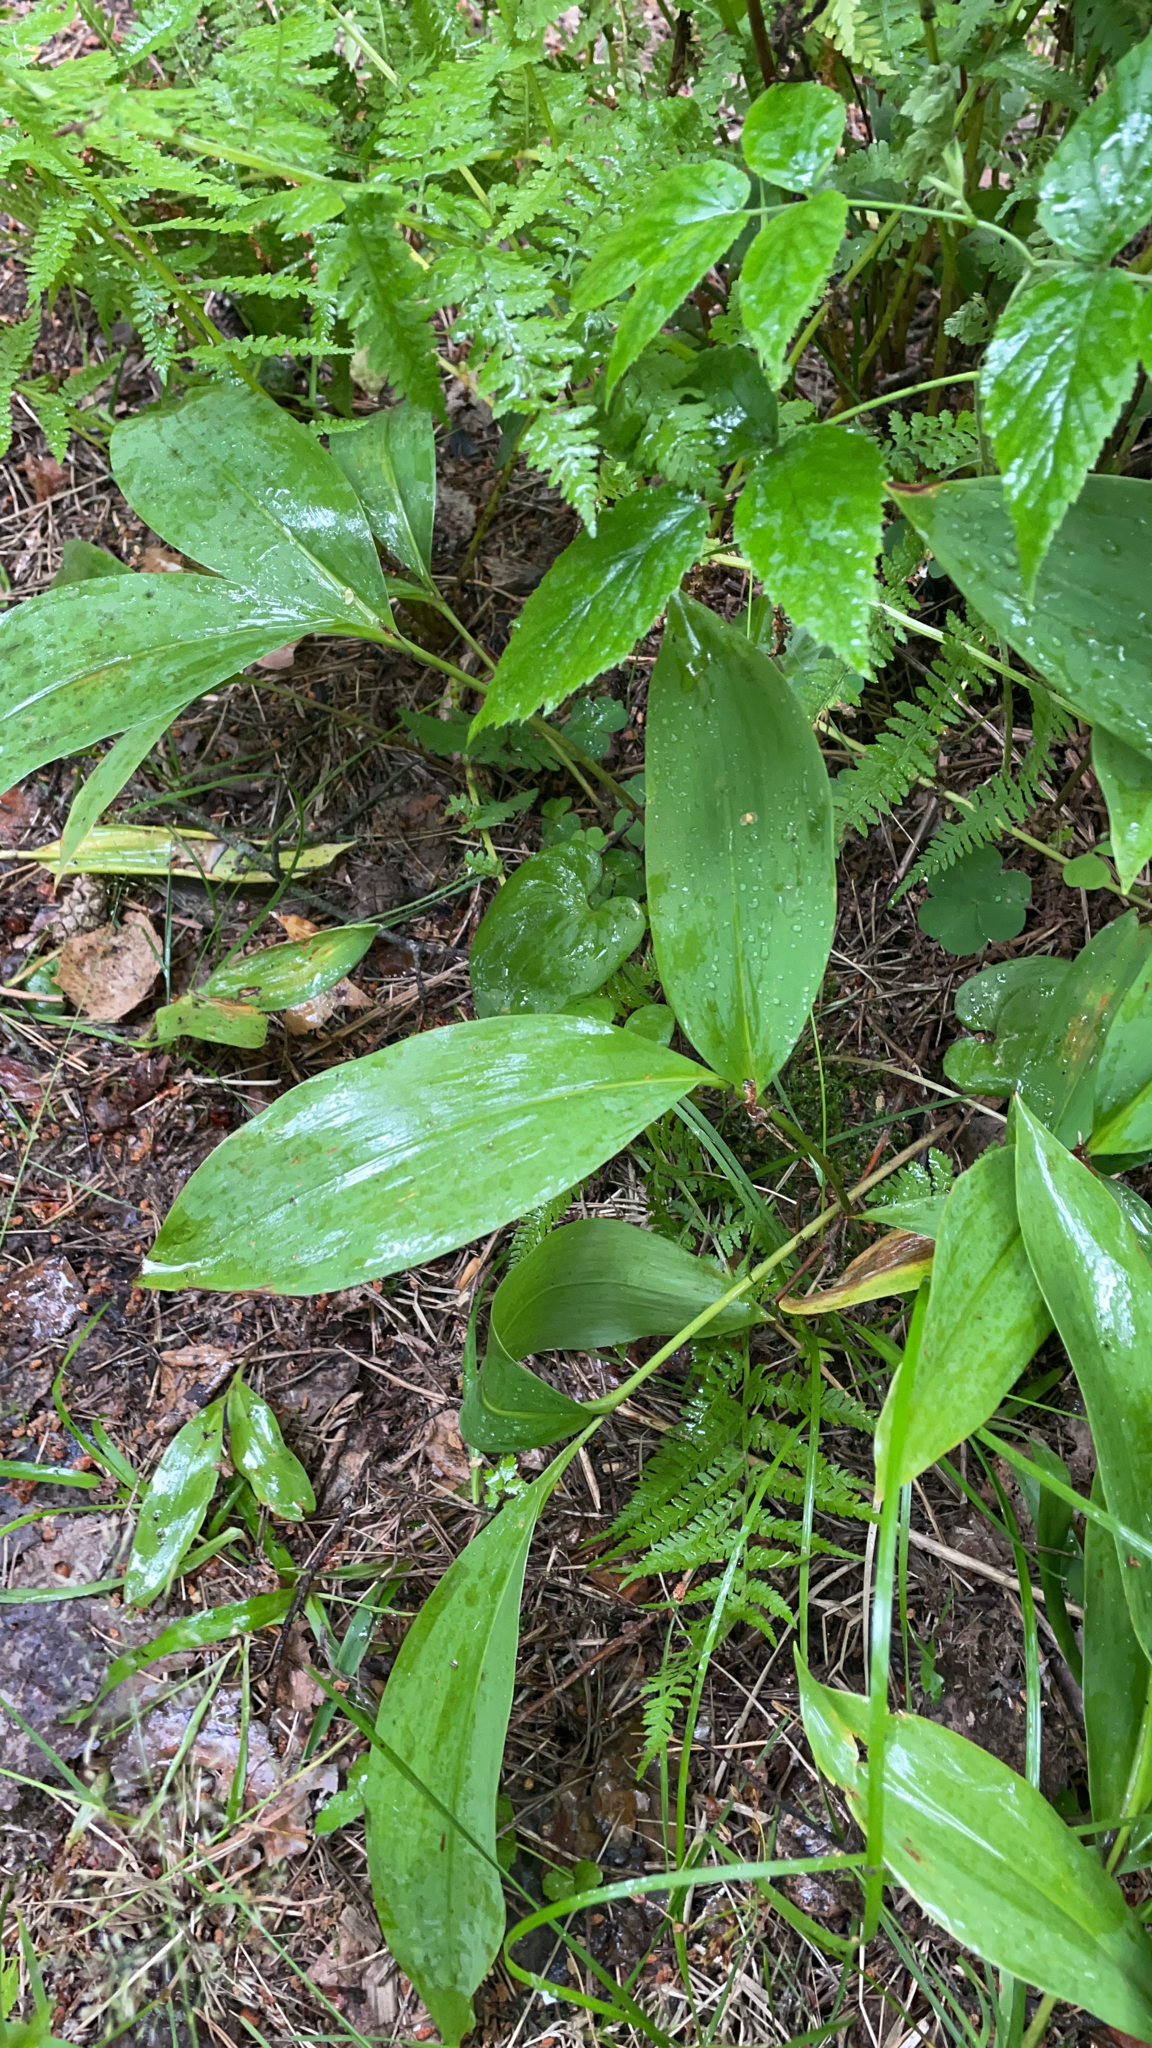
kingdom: Plantae
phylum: Tracheophyta
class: Liliopsida
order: Asparagales
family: Asparagaceae
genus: Convallaria
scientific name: Convallaria majalis
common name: Lily-of-the-valley
